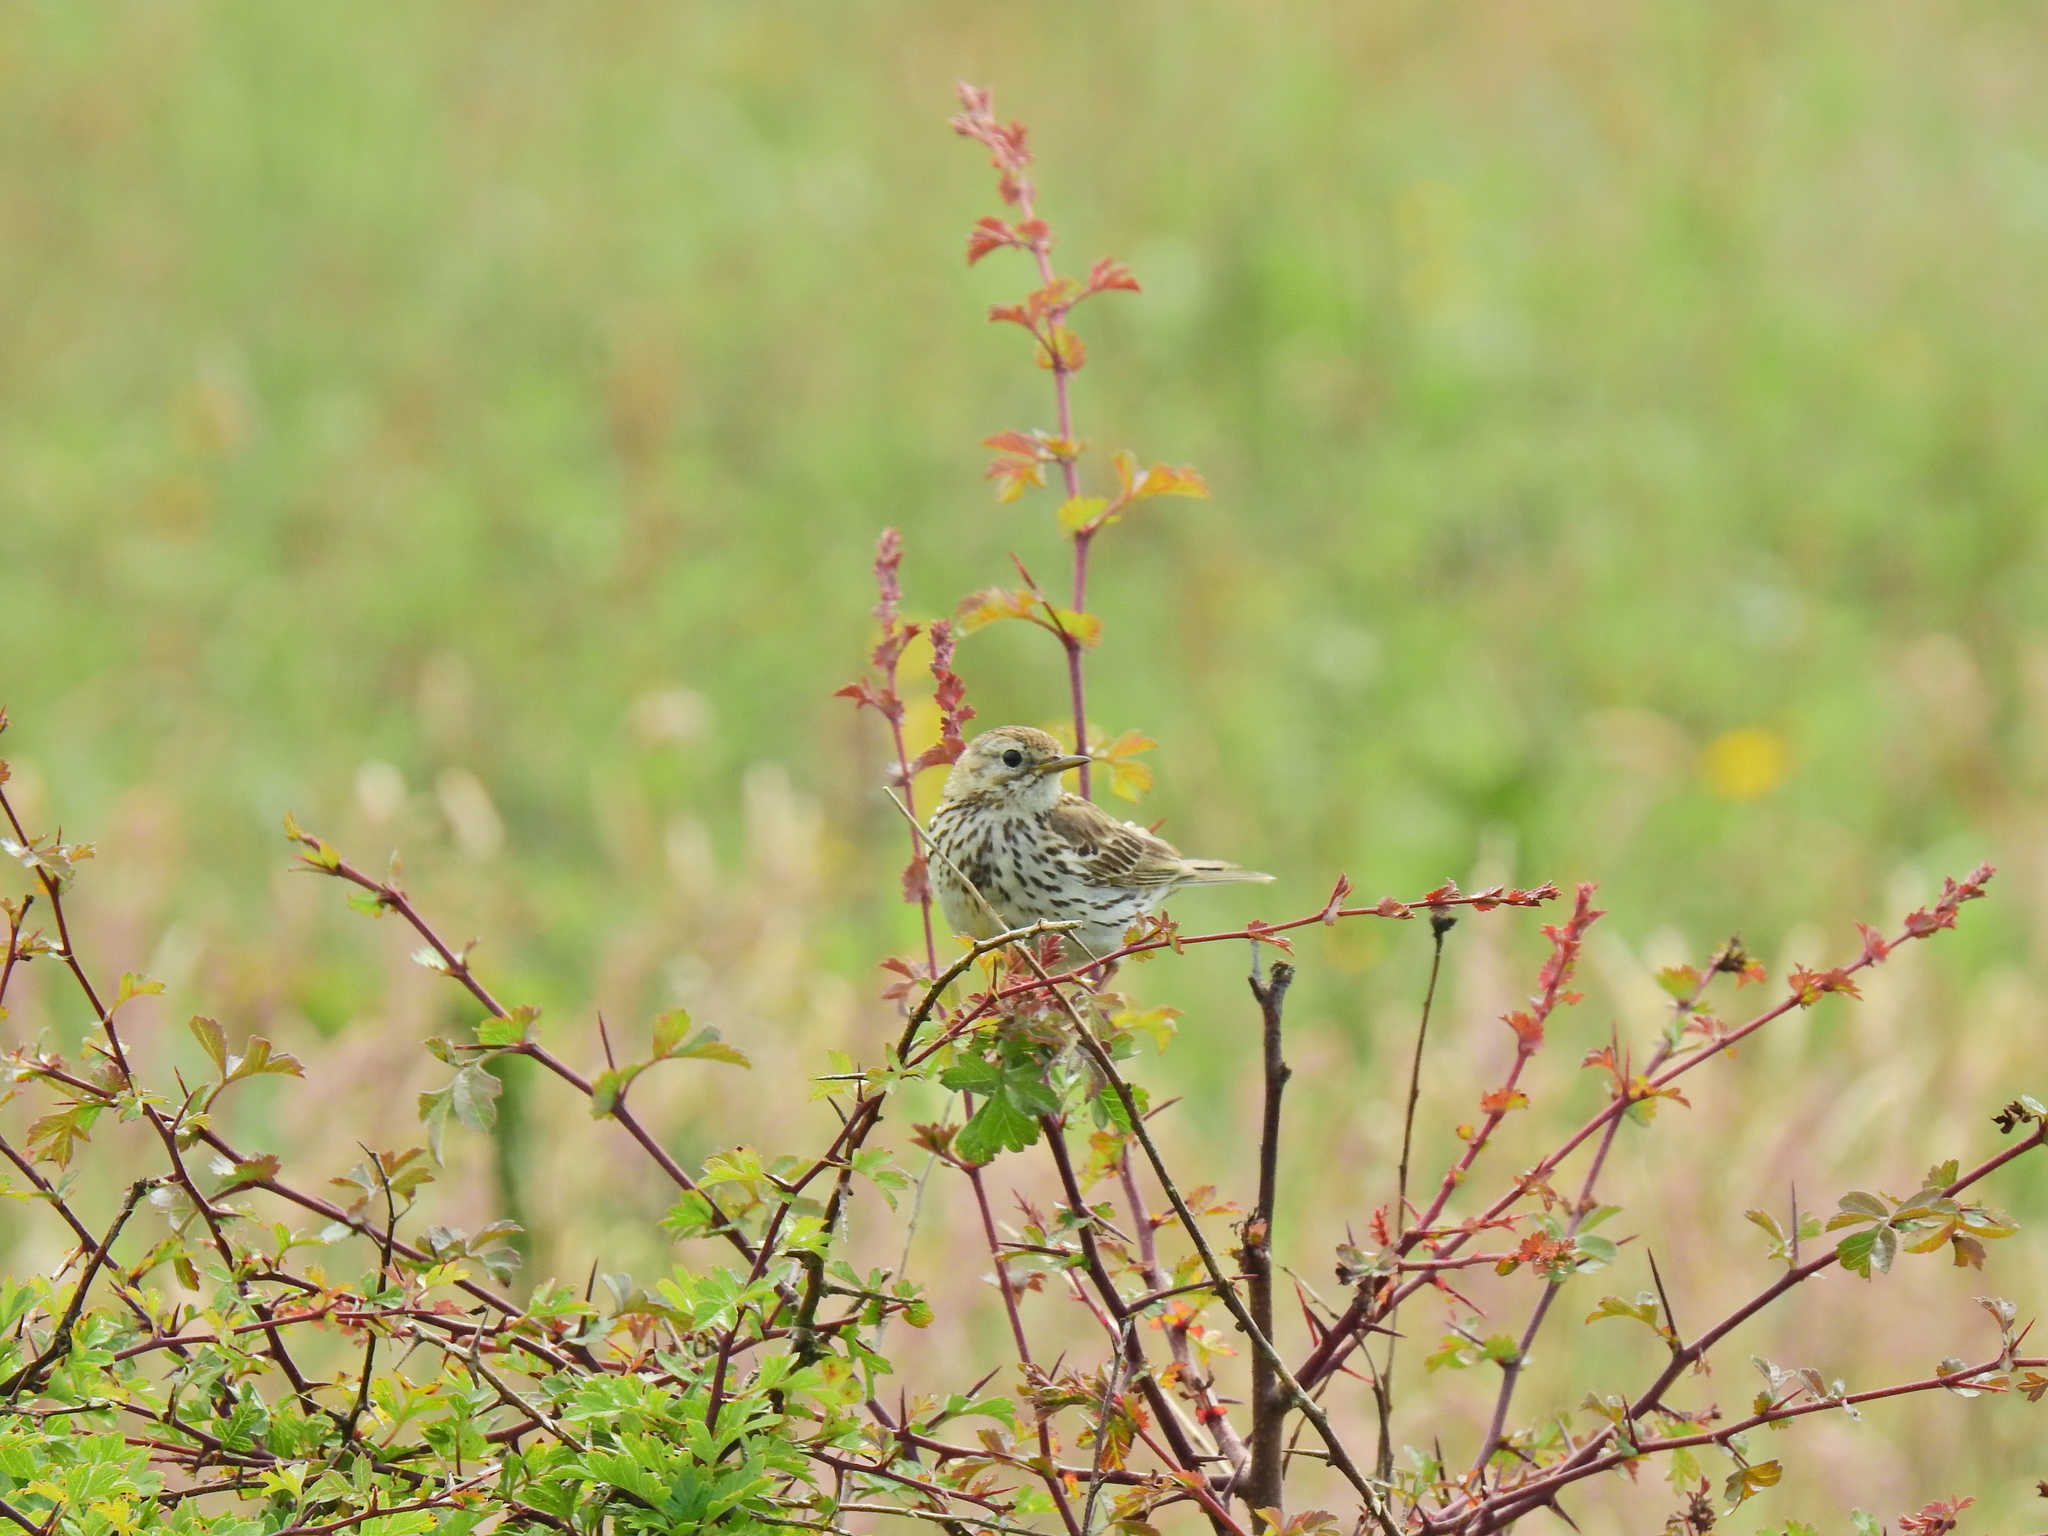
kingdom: Animalia
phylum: Chordata
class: Aves
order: Passeriformes
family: Motacillidae
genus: Anthus
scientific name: Anthus pratensis
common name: Meadow pipit
